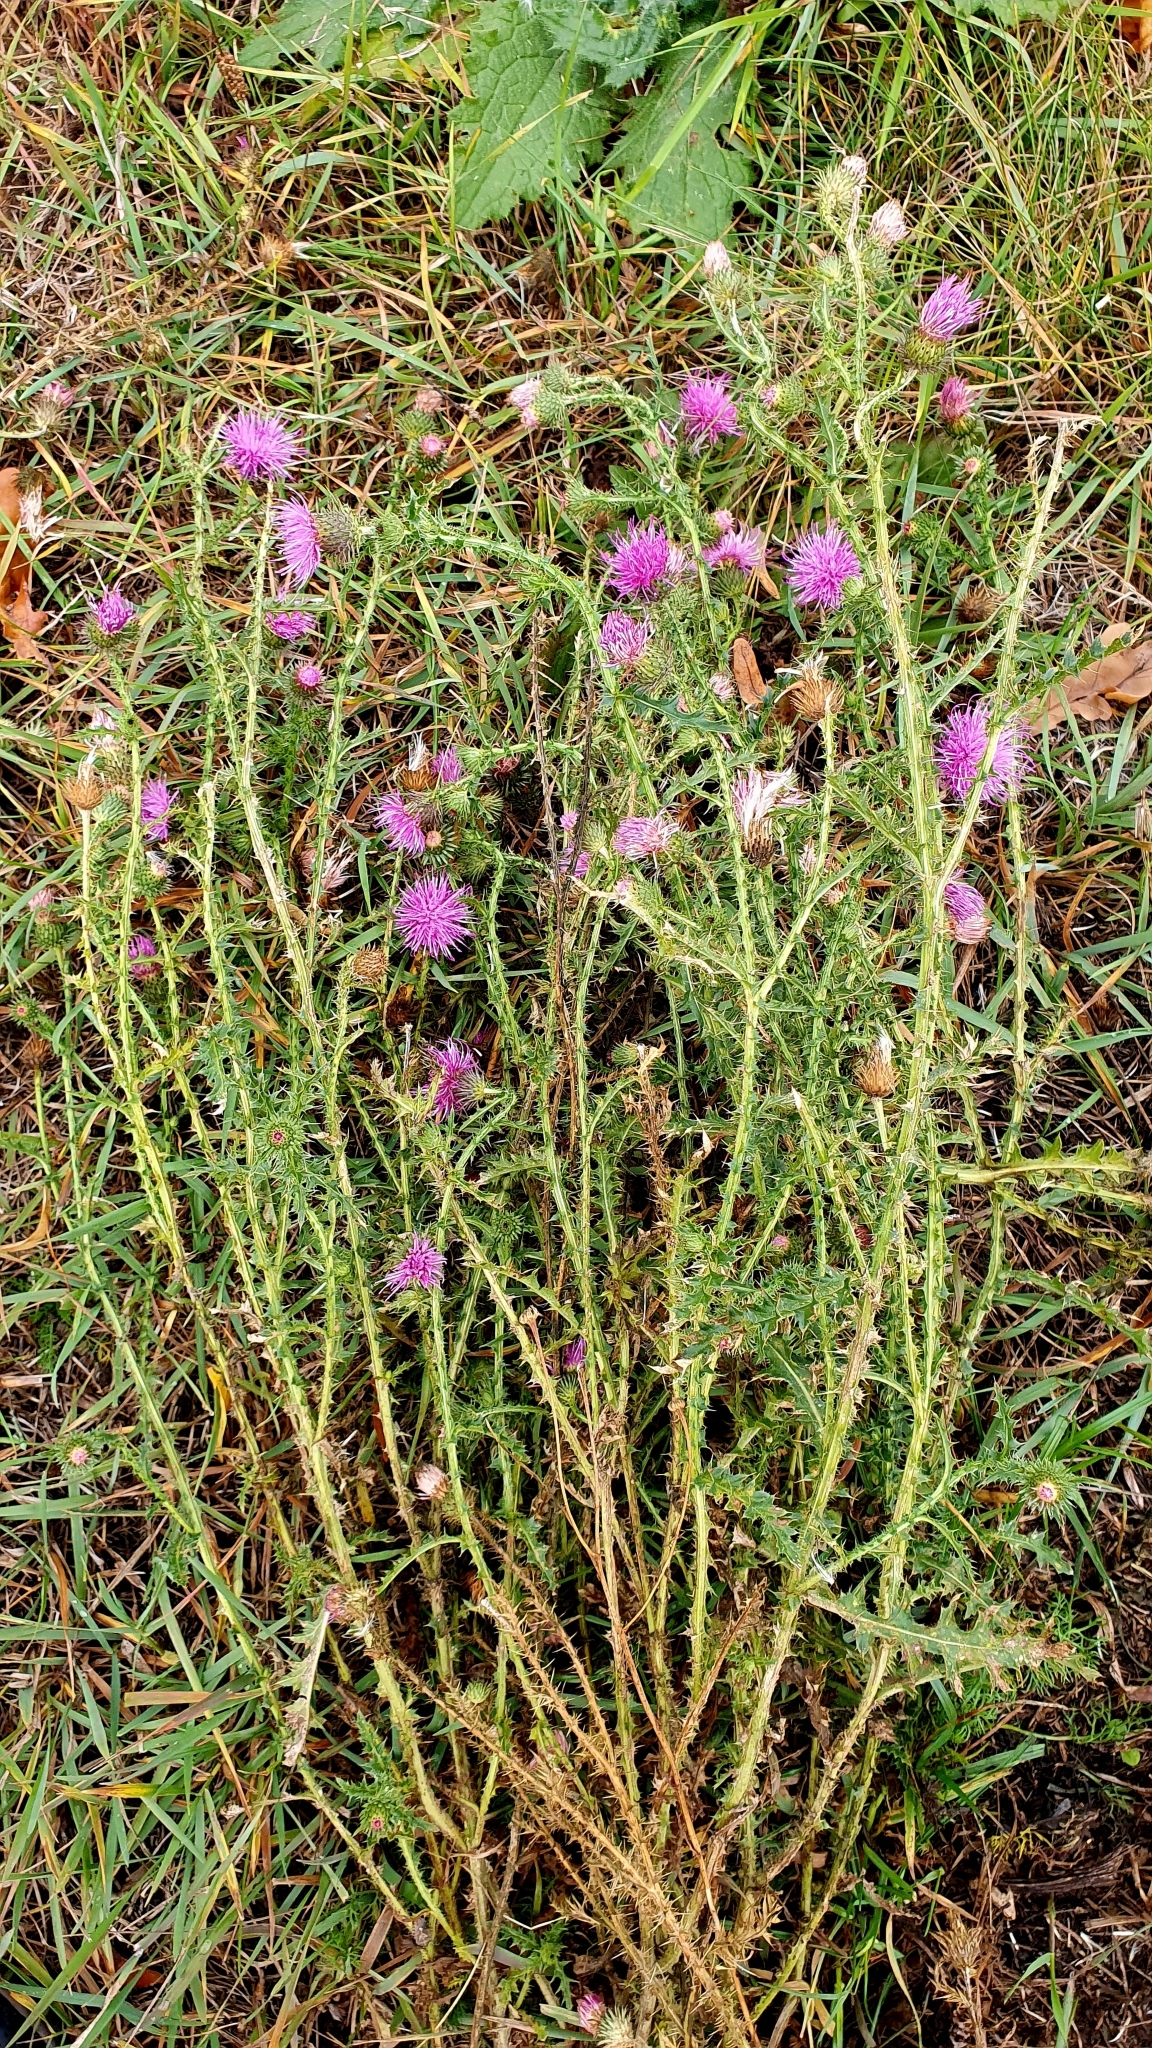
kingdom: Plantae
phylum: Tracheophyta
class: Magnoliopsida
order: Asterales
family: Asteraceae
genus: Carduus
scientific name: Carduus acanthoides
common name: Plumeless thistle
